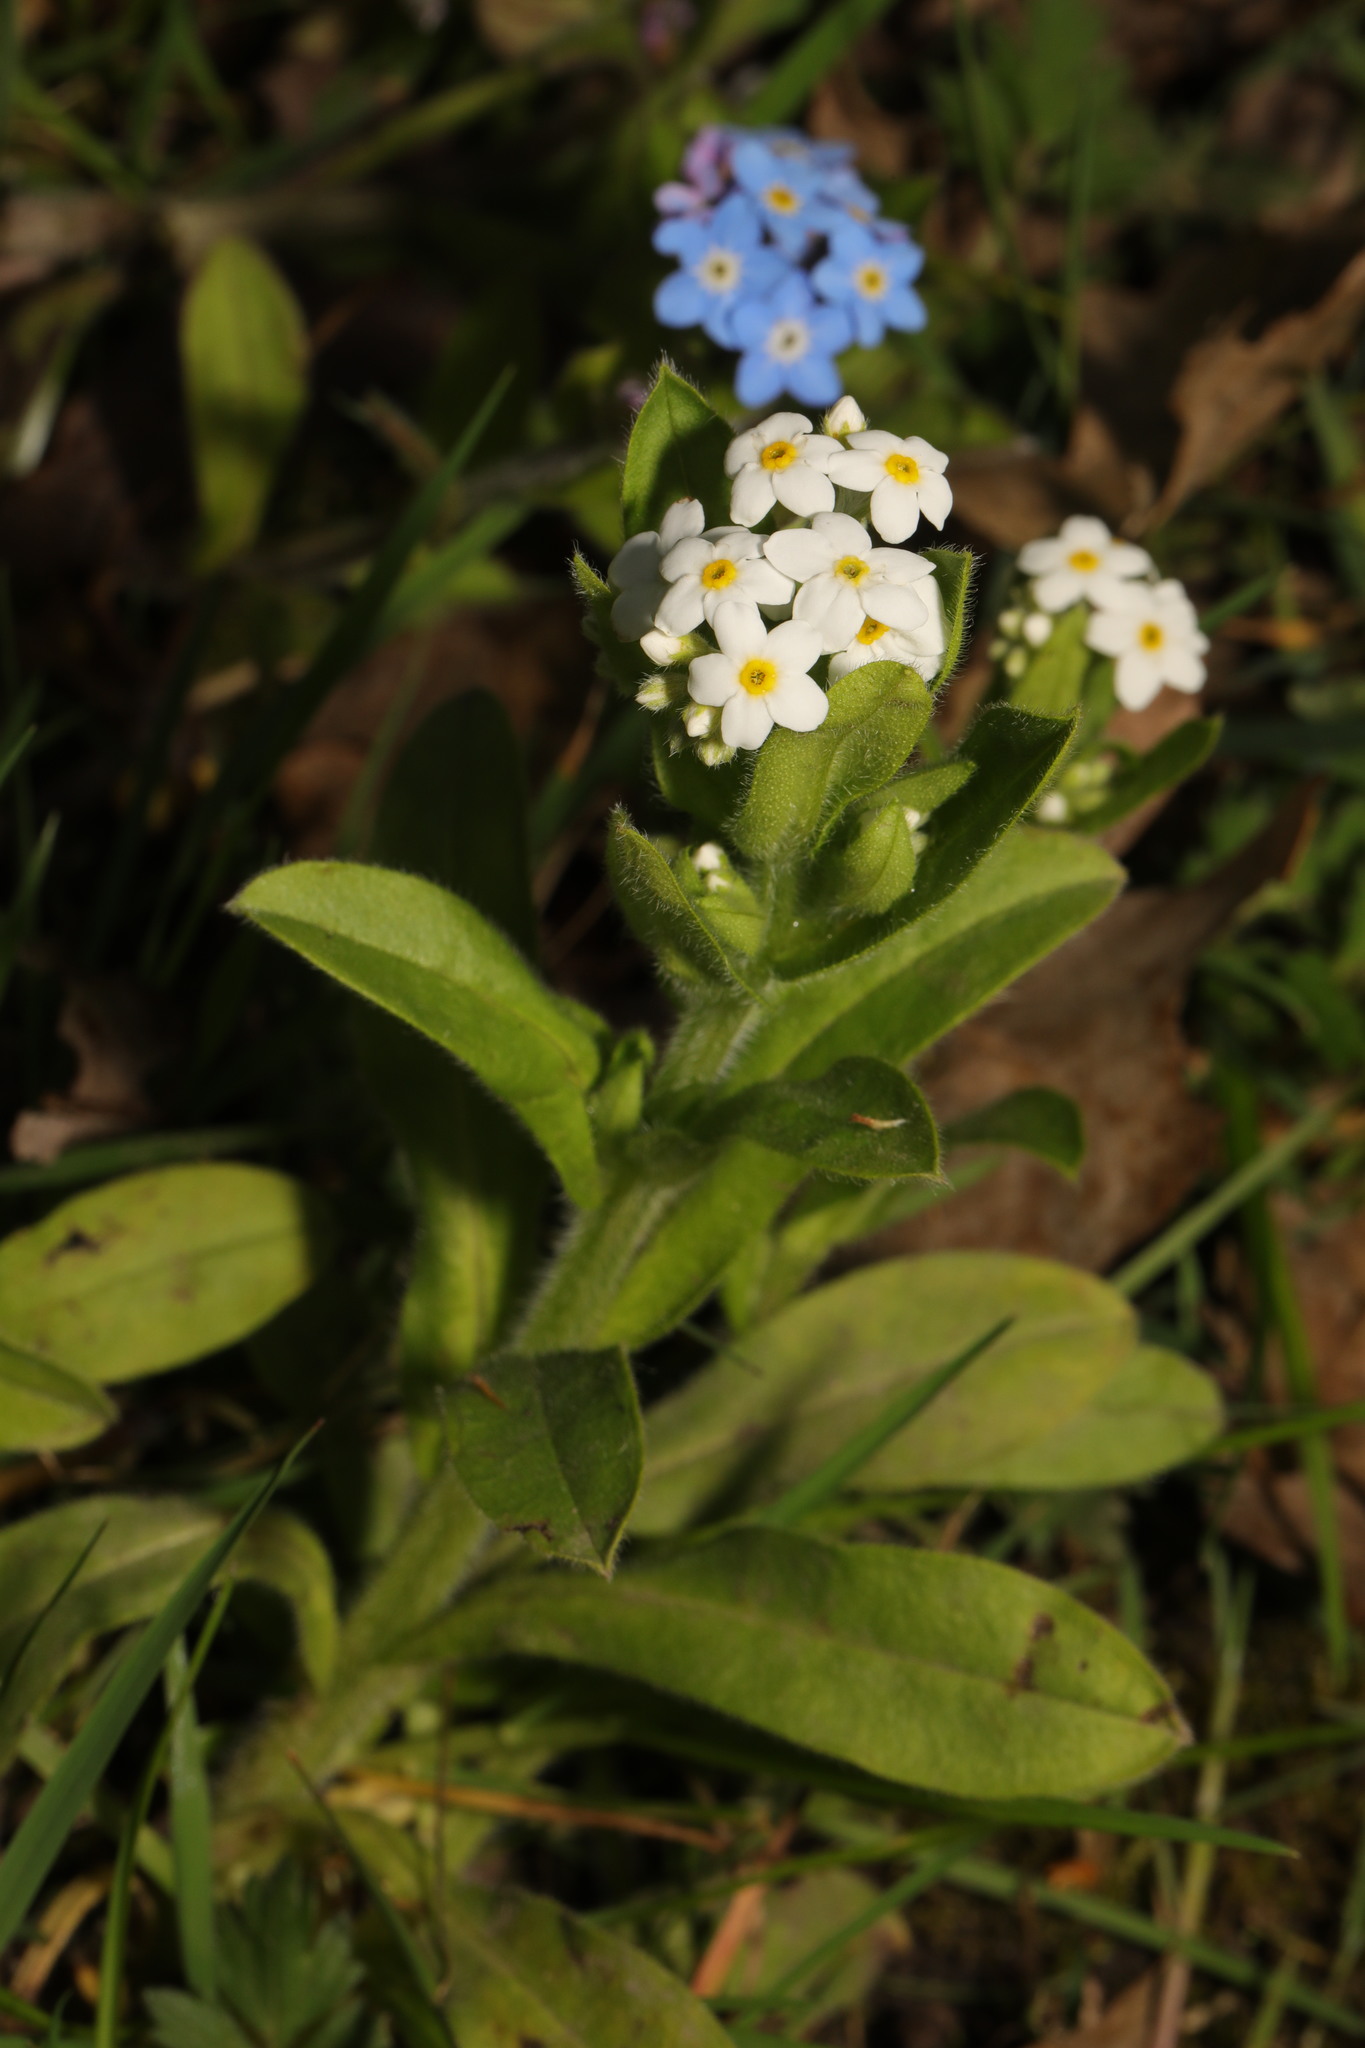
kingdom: Plantae
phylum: Tracheophyta
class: Magnoliopsida
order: Boraginales
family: Boraginaceae
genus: Myosotis
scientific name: Myosotis sylvatica
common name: Wood forget-me-not
